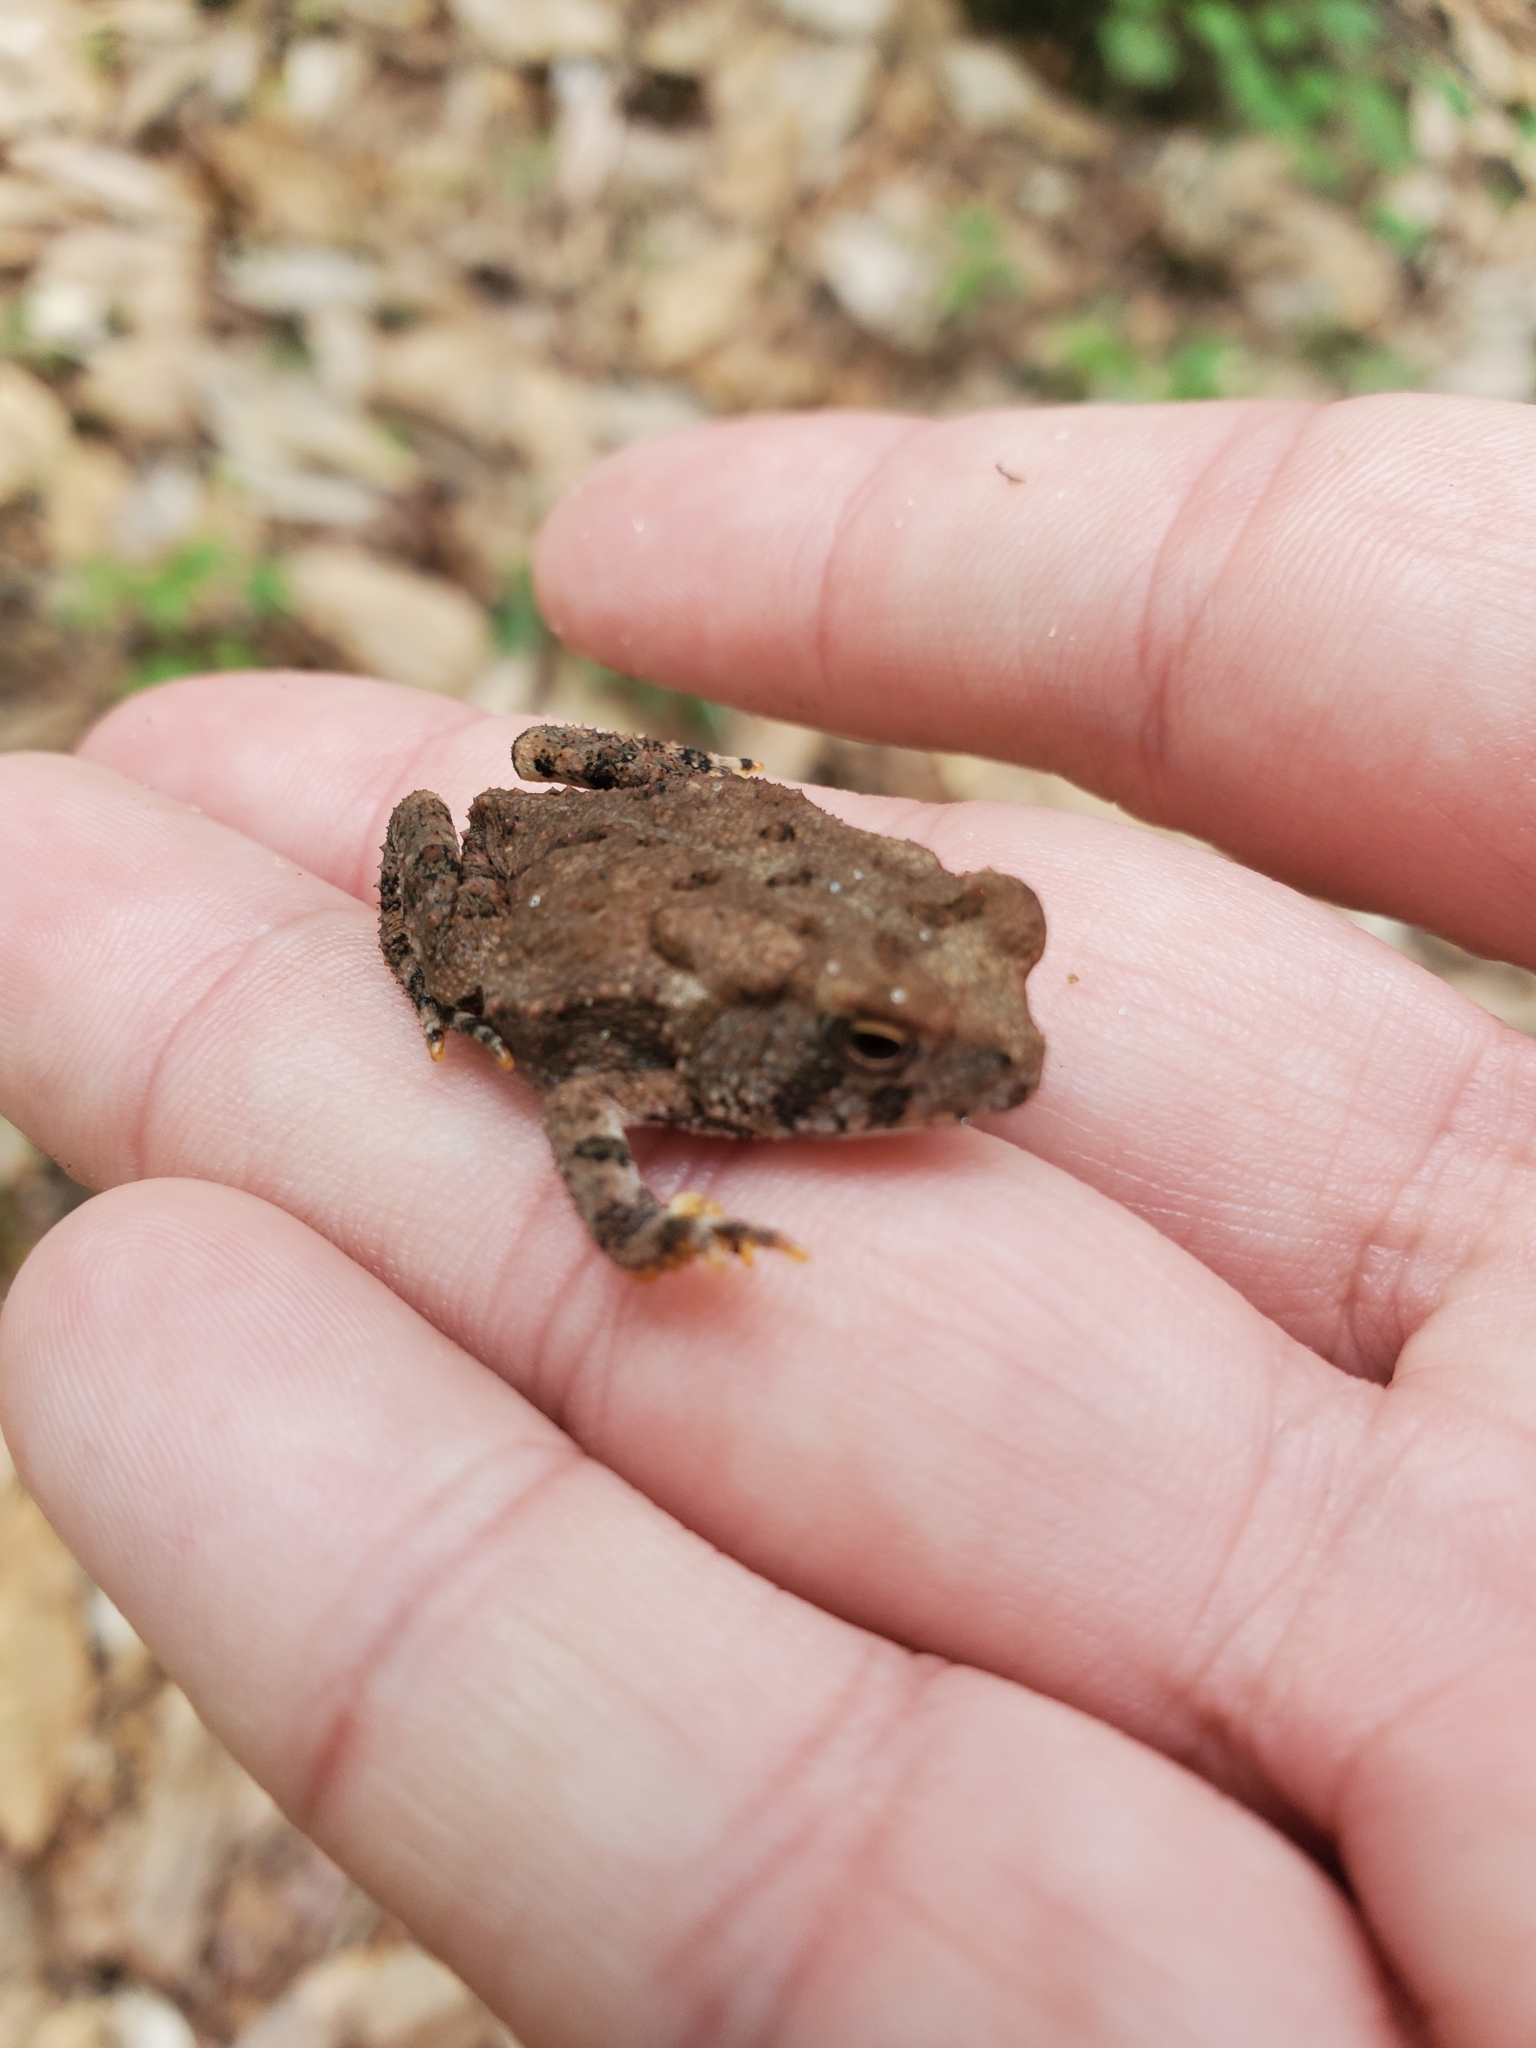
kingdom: Animalia
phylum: Chordata
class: Amphibia
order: Anura
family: Bufonidae
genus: Anaxyrus
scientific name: Anaxyrus fowleri
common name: Fowler's toad
